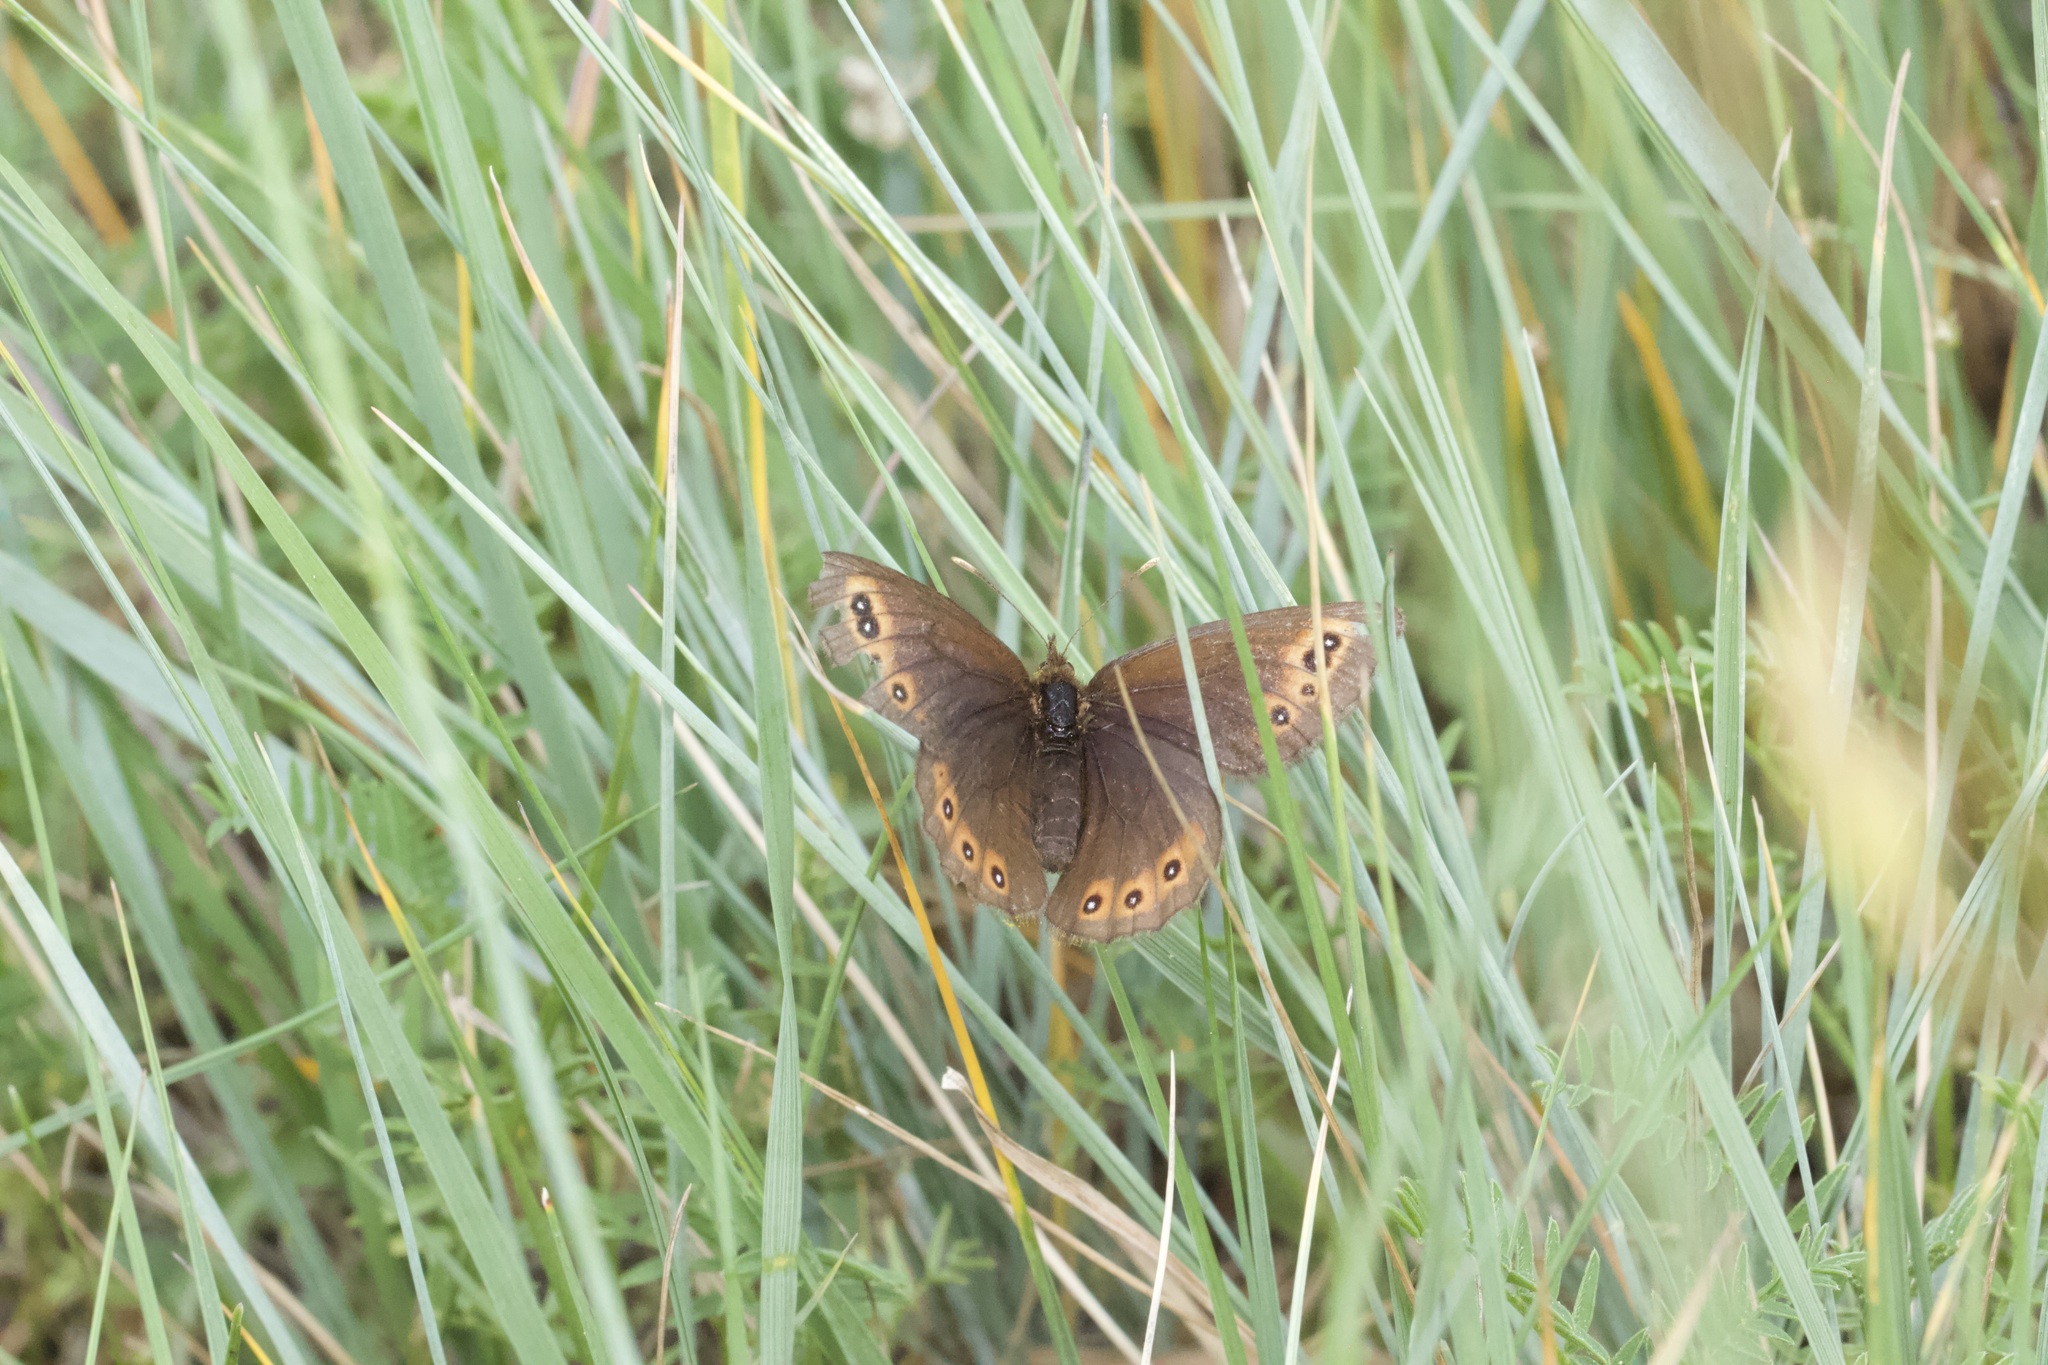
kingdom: Animalia
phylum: Arthropoda
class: Insecta
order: Lepidoptera
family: Nymphalidae
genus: Erebia
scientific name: Erebia epipsodea
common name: Common alpine
